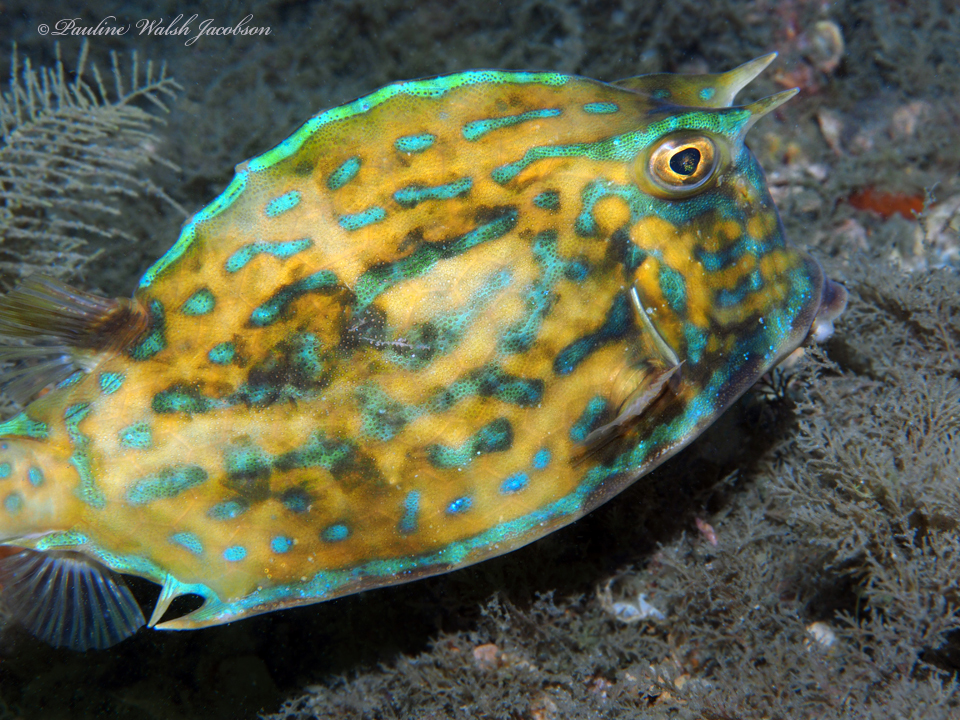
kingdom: Animalia
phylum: Chordata
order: Tetraodontiformes
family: Ostraciidae
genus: Acanthostracion
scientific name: Acanthostracion quadricornis
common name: Scrawled cowfish
